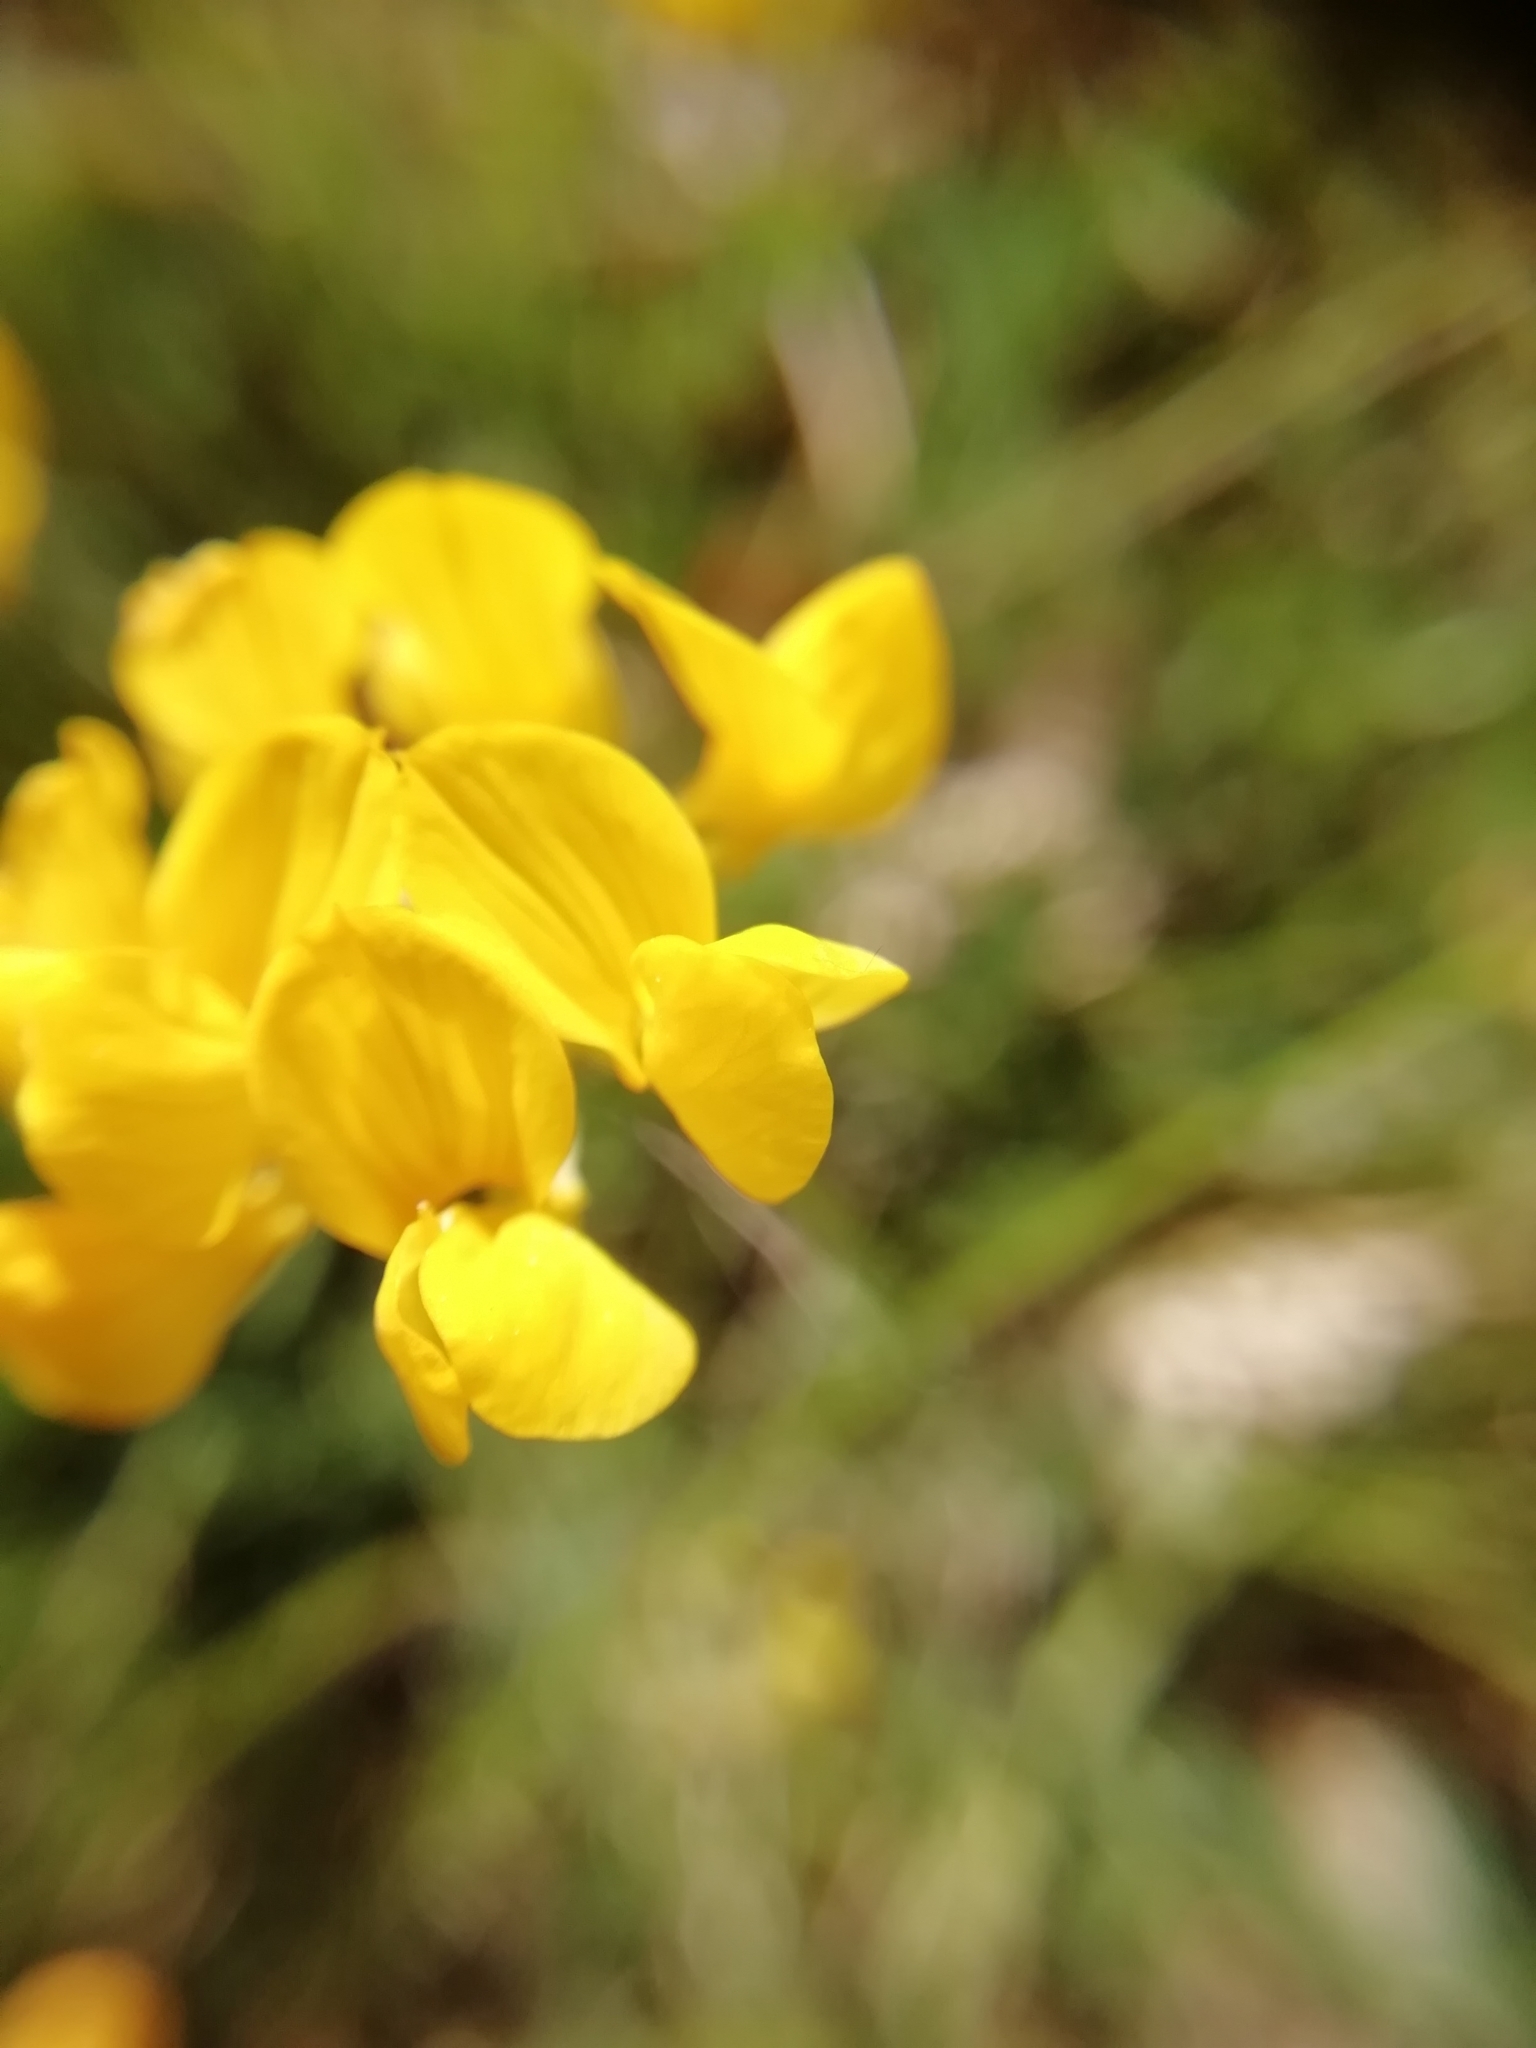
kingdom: Plantae
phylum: Tracheophyta
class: Magnoliopsida
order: Fabales
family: Fabaceae
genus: Hippocrepis
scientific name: Hippocrepis comosa
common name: Horseshoe vetch
